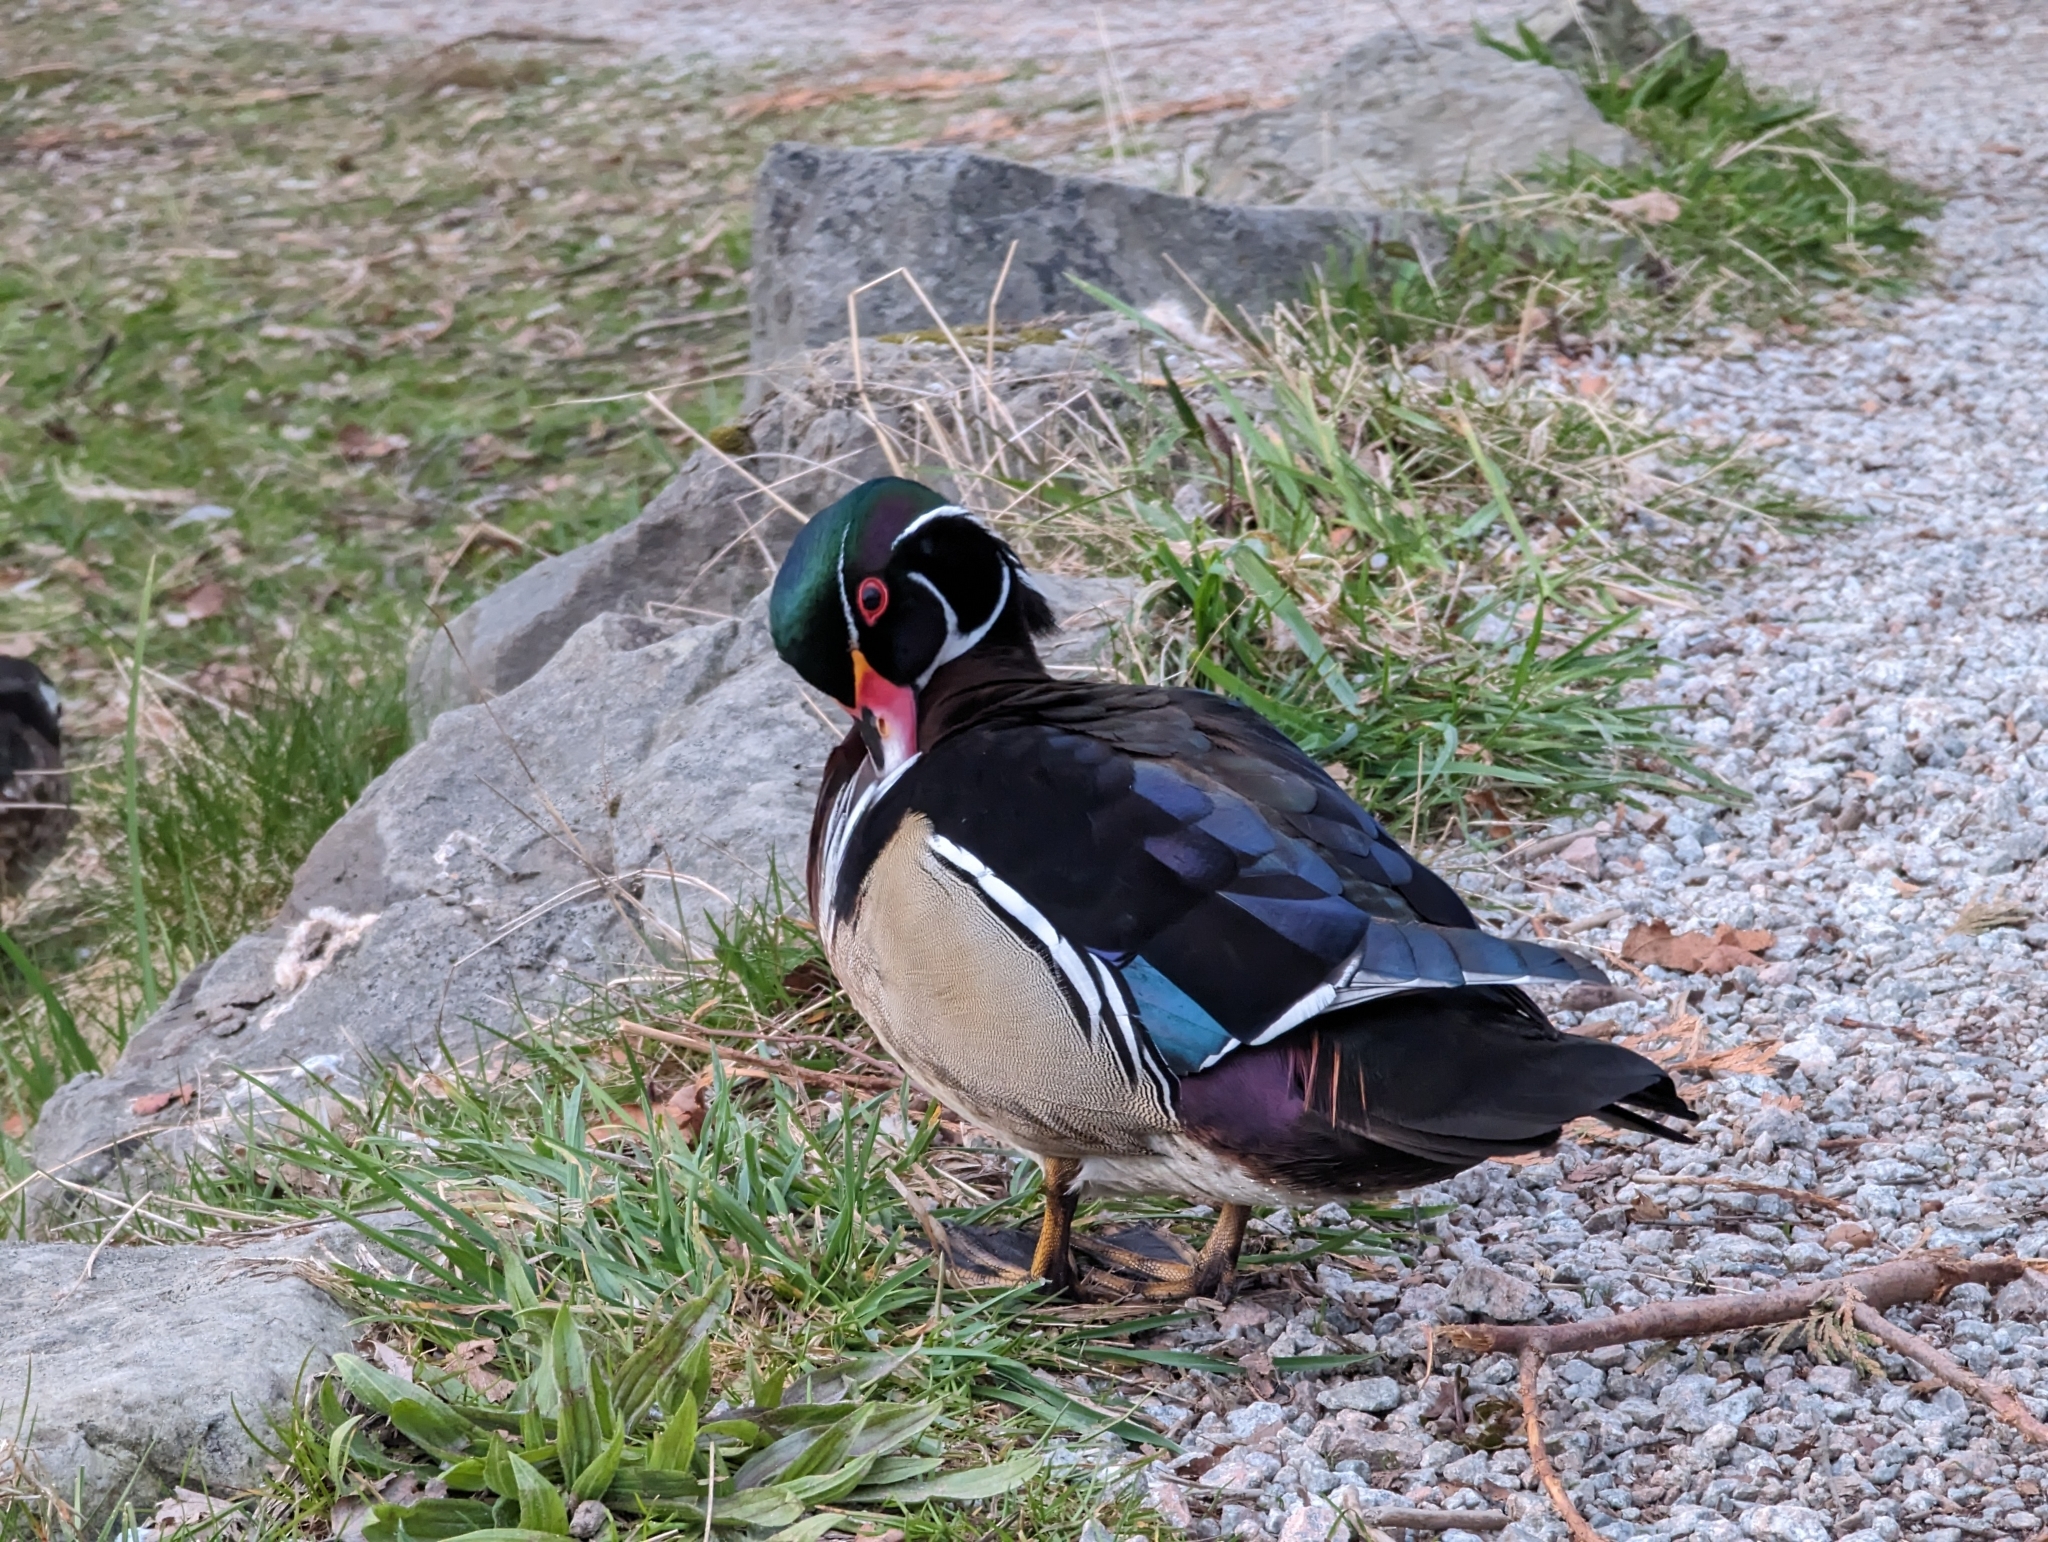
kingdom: Animalia
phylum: Chordata
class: Aves
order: Anseriformes
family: Anatidae
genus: Aix
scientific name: Aix sponsa
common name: Wood duck
